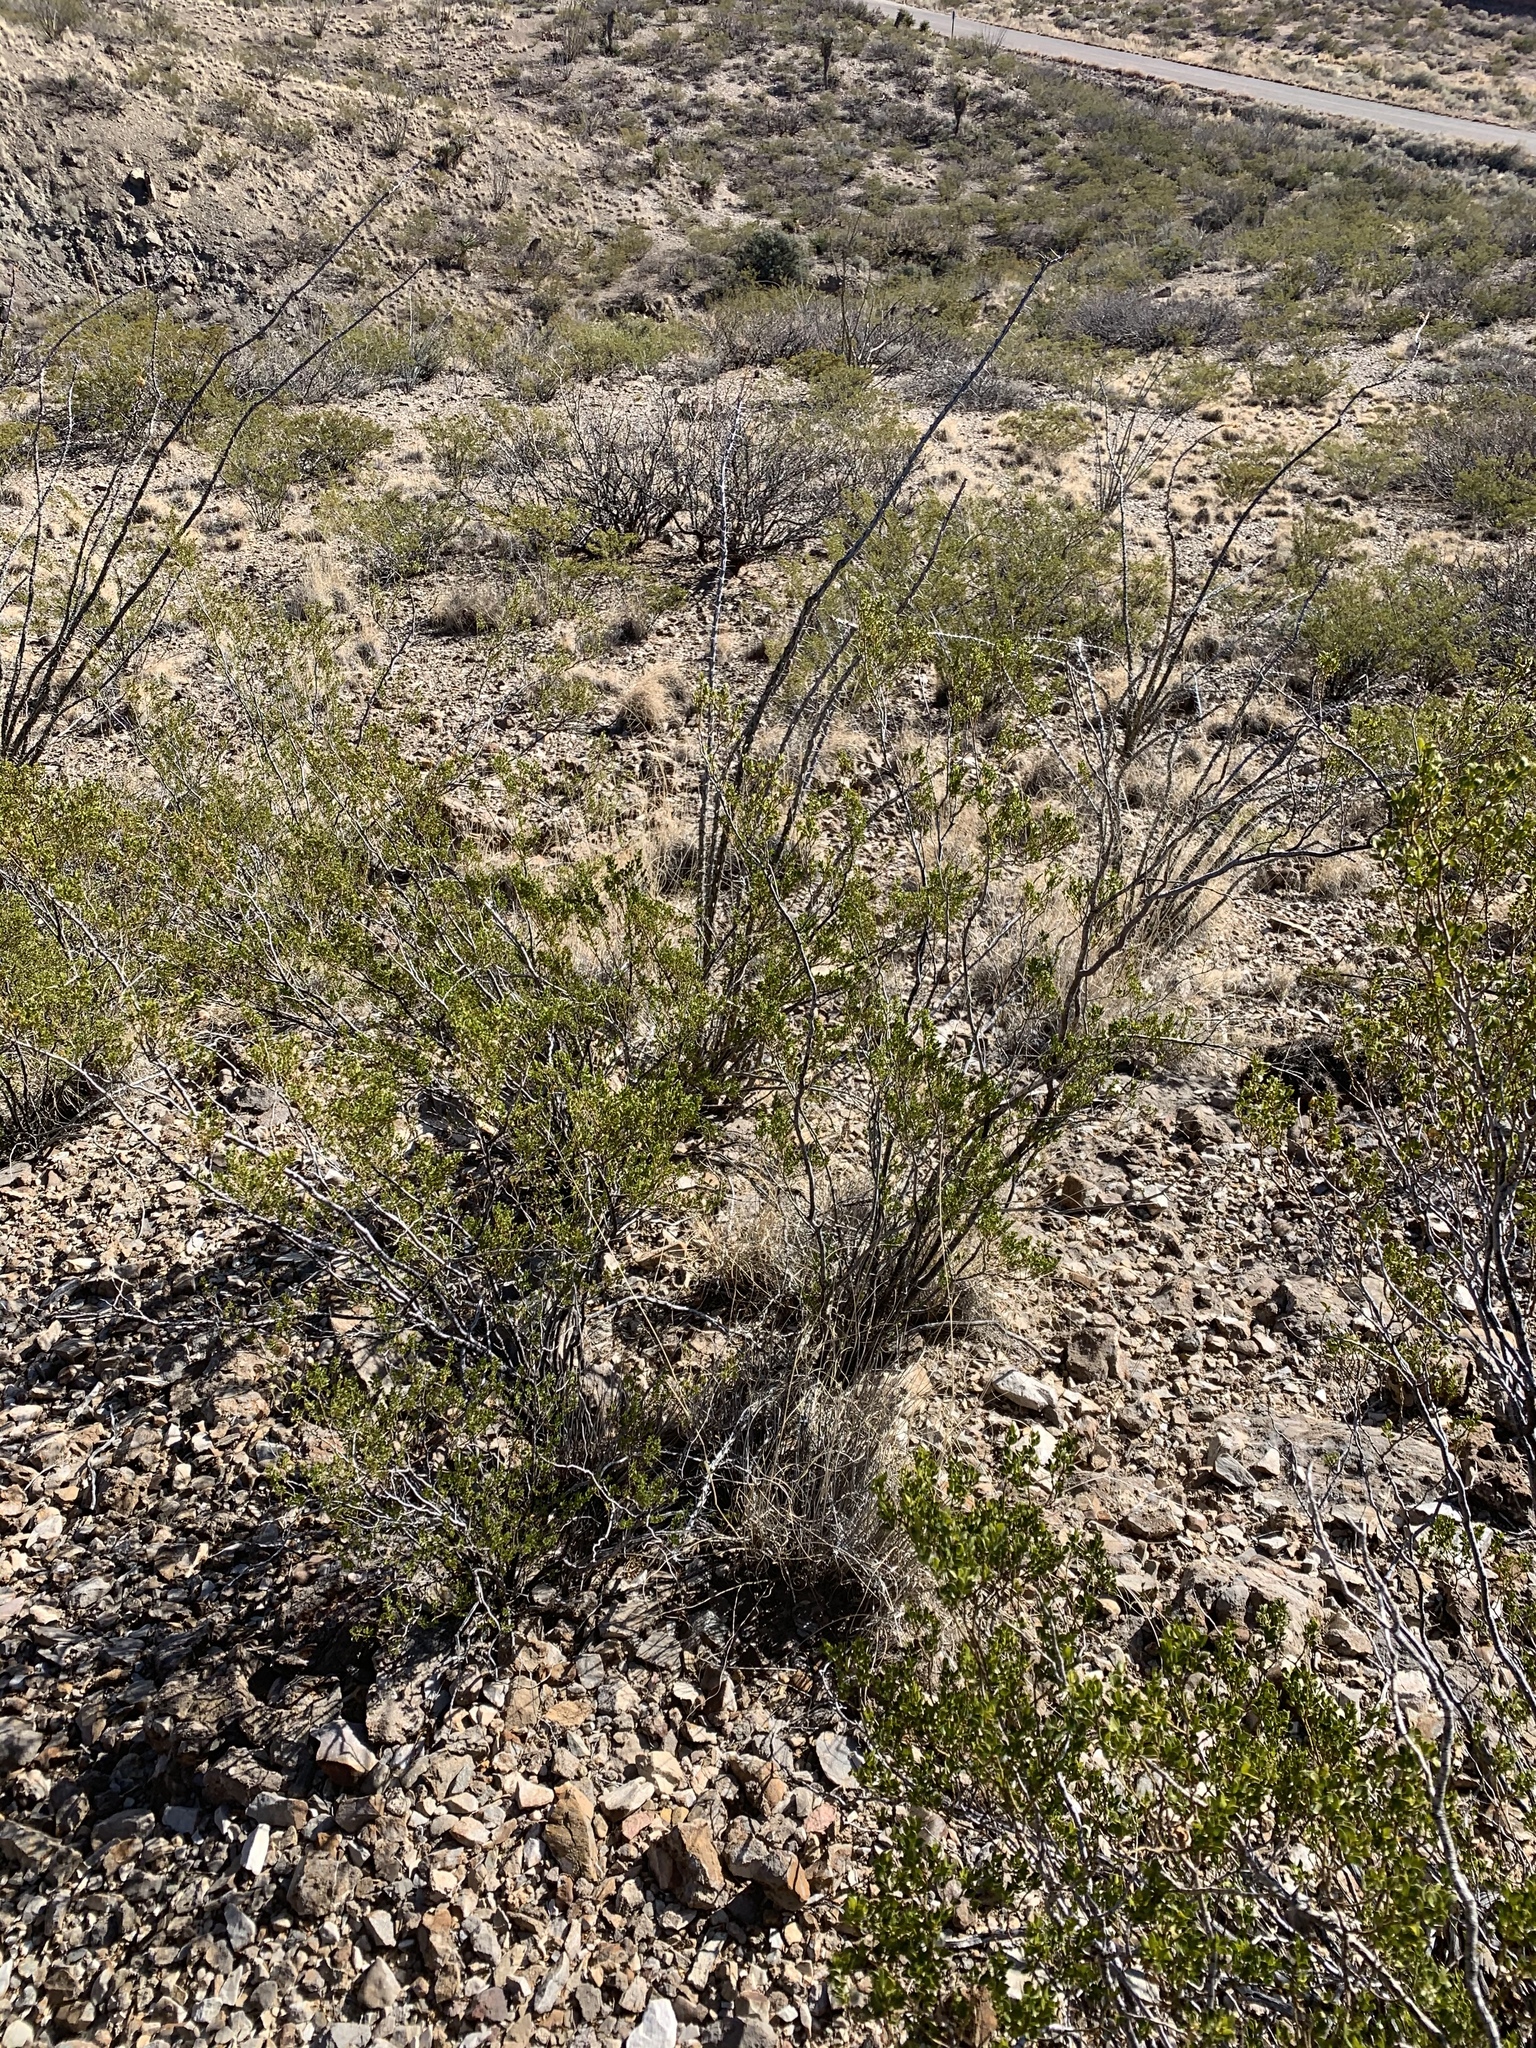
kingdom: Plantae
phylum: Tracheophyta
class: Magnoliopsida
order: Zygophyllales
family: Zygophyllaceae
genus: Larrea
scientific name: Larrea tridentata
